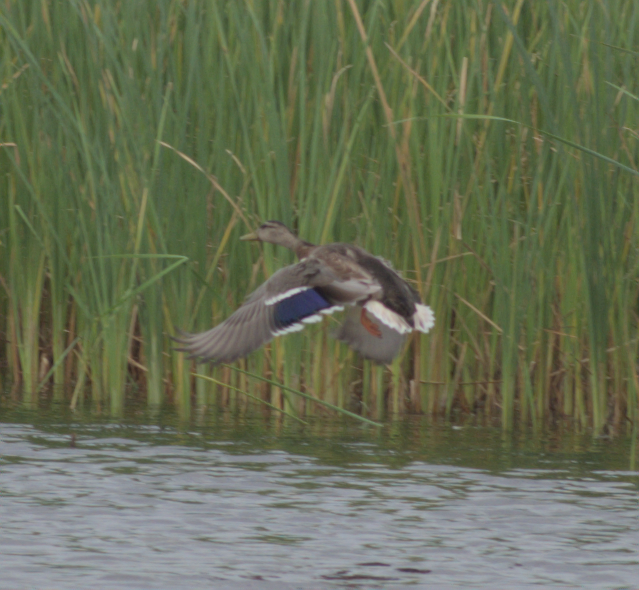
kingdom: Animalia
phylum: Chordata
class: Aves
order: Anseriformes
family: Anatidae
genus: Anas
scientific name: Anas platyrhynchos
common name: Mallard
